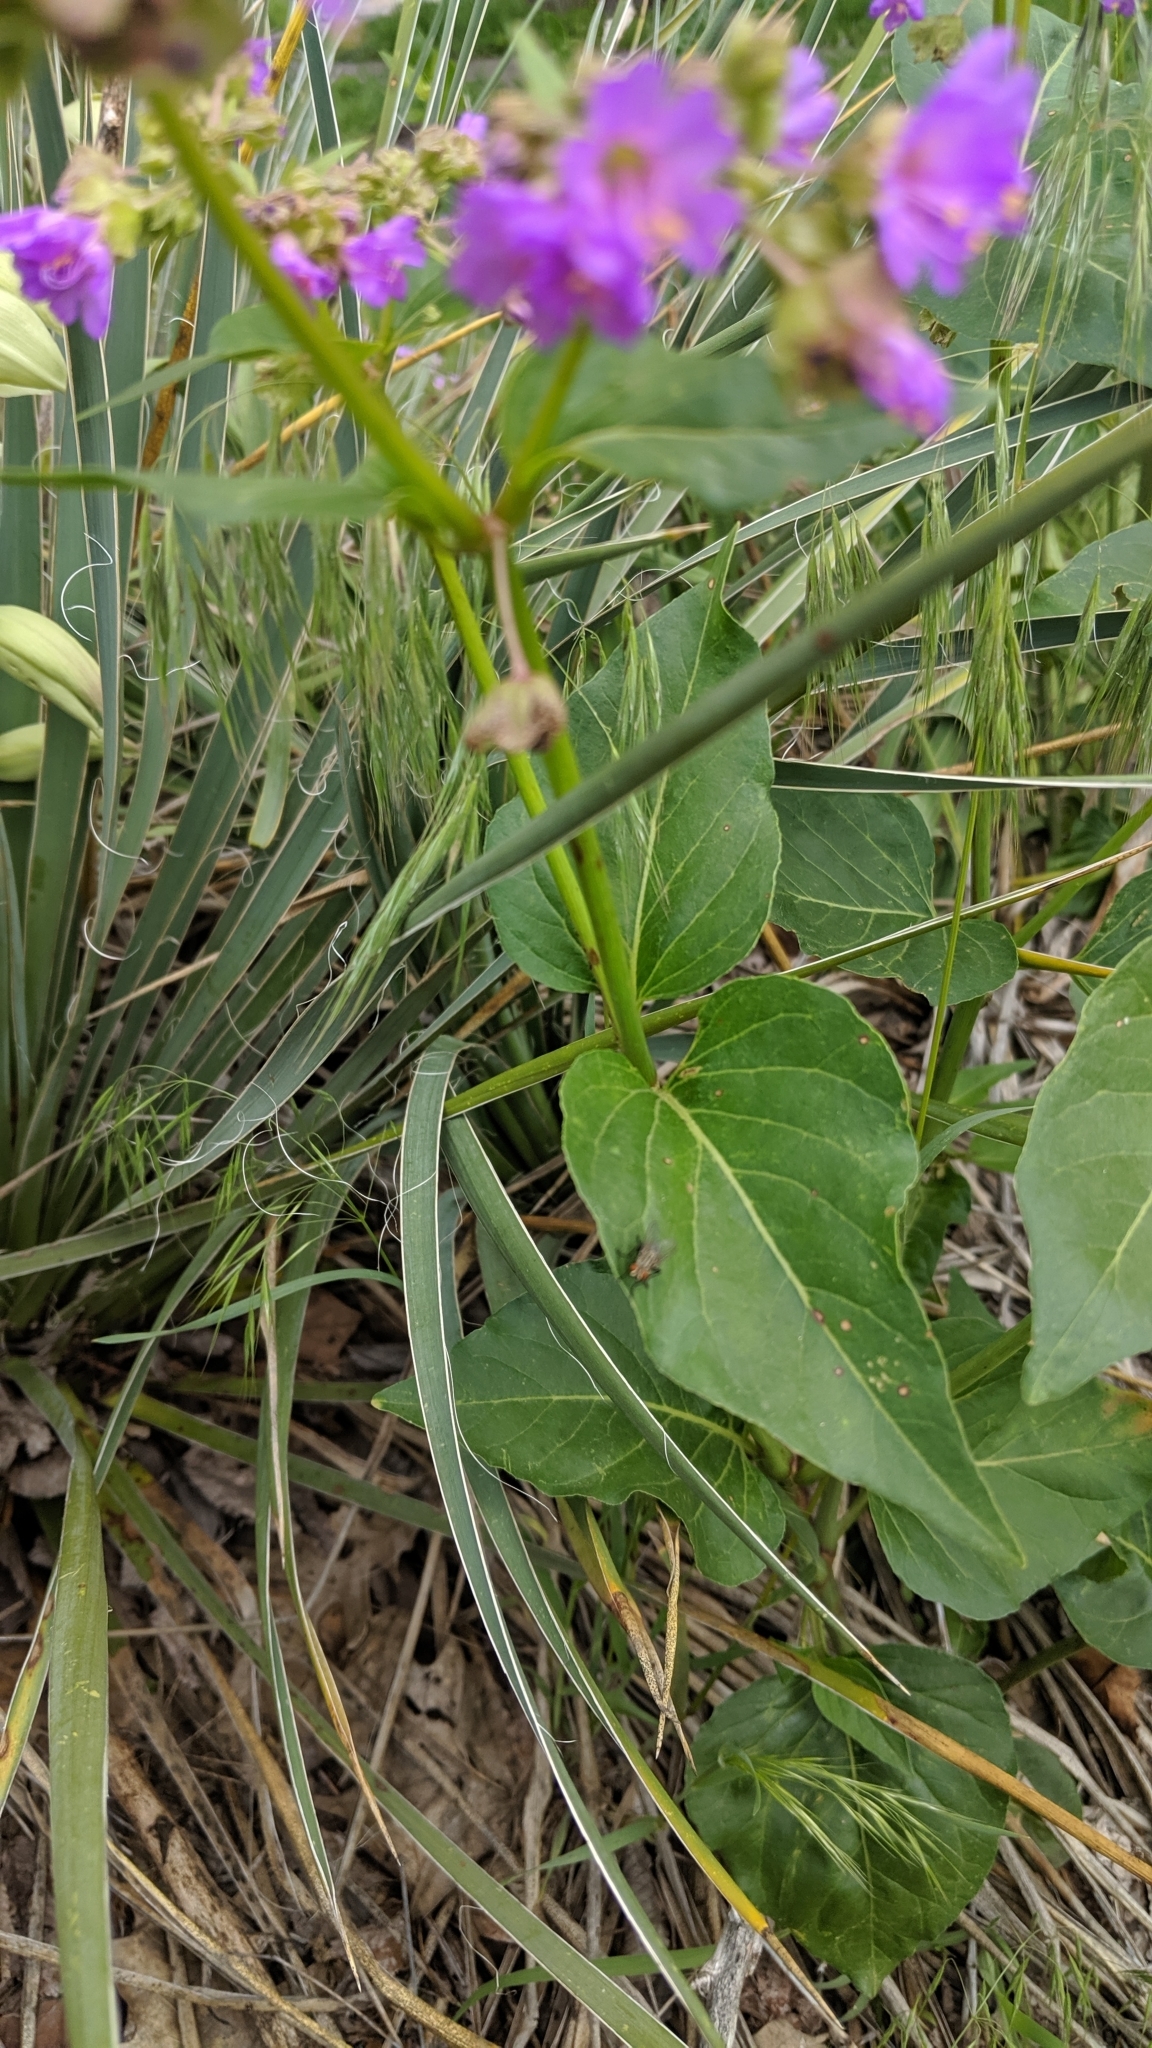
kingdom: Plantae
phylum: Tracheophyta
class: Magnoliopsida
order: Caryophyllales
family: Nyctaginaceae
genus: Mirabilis
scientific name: Mirabilis nyctaginea
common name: Umbrella wort
